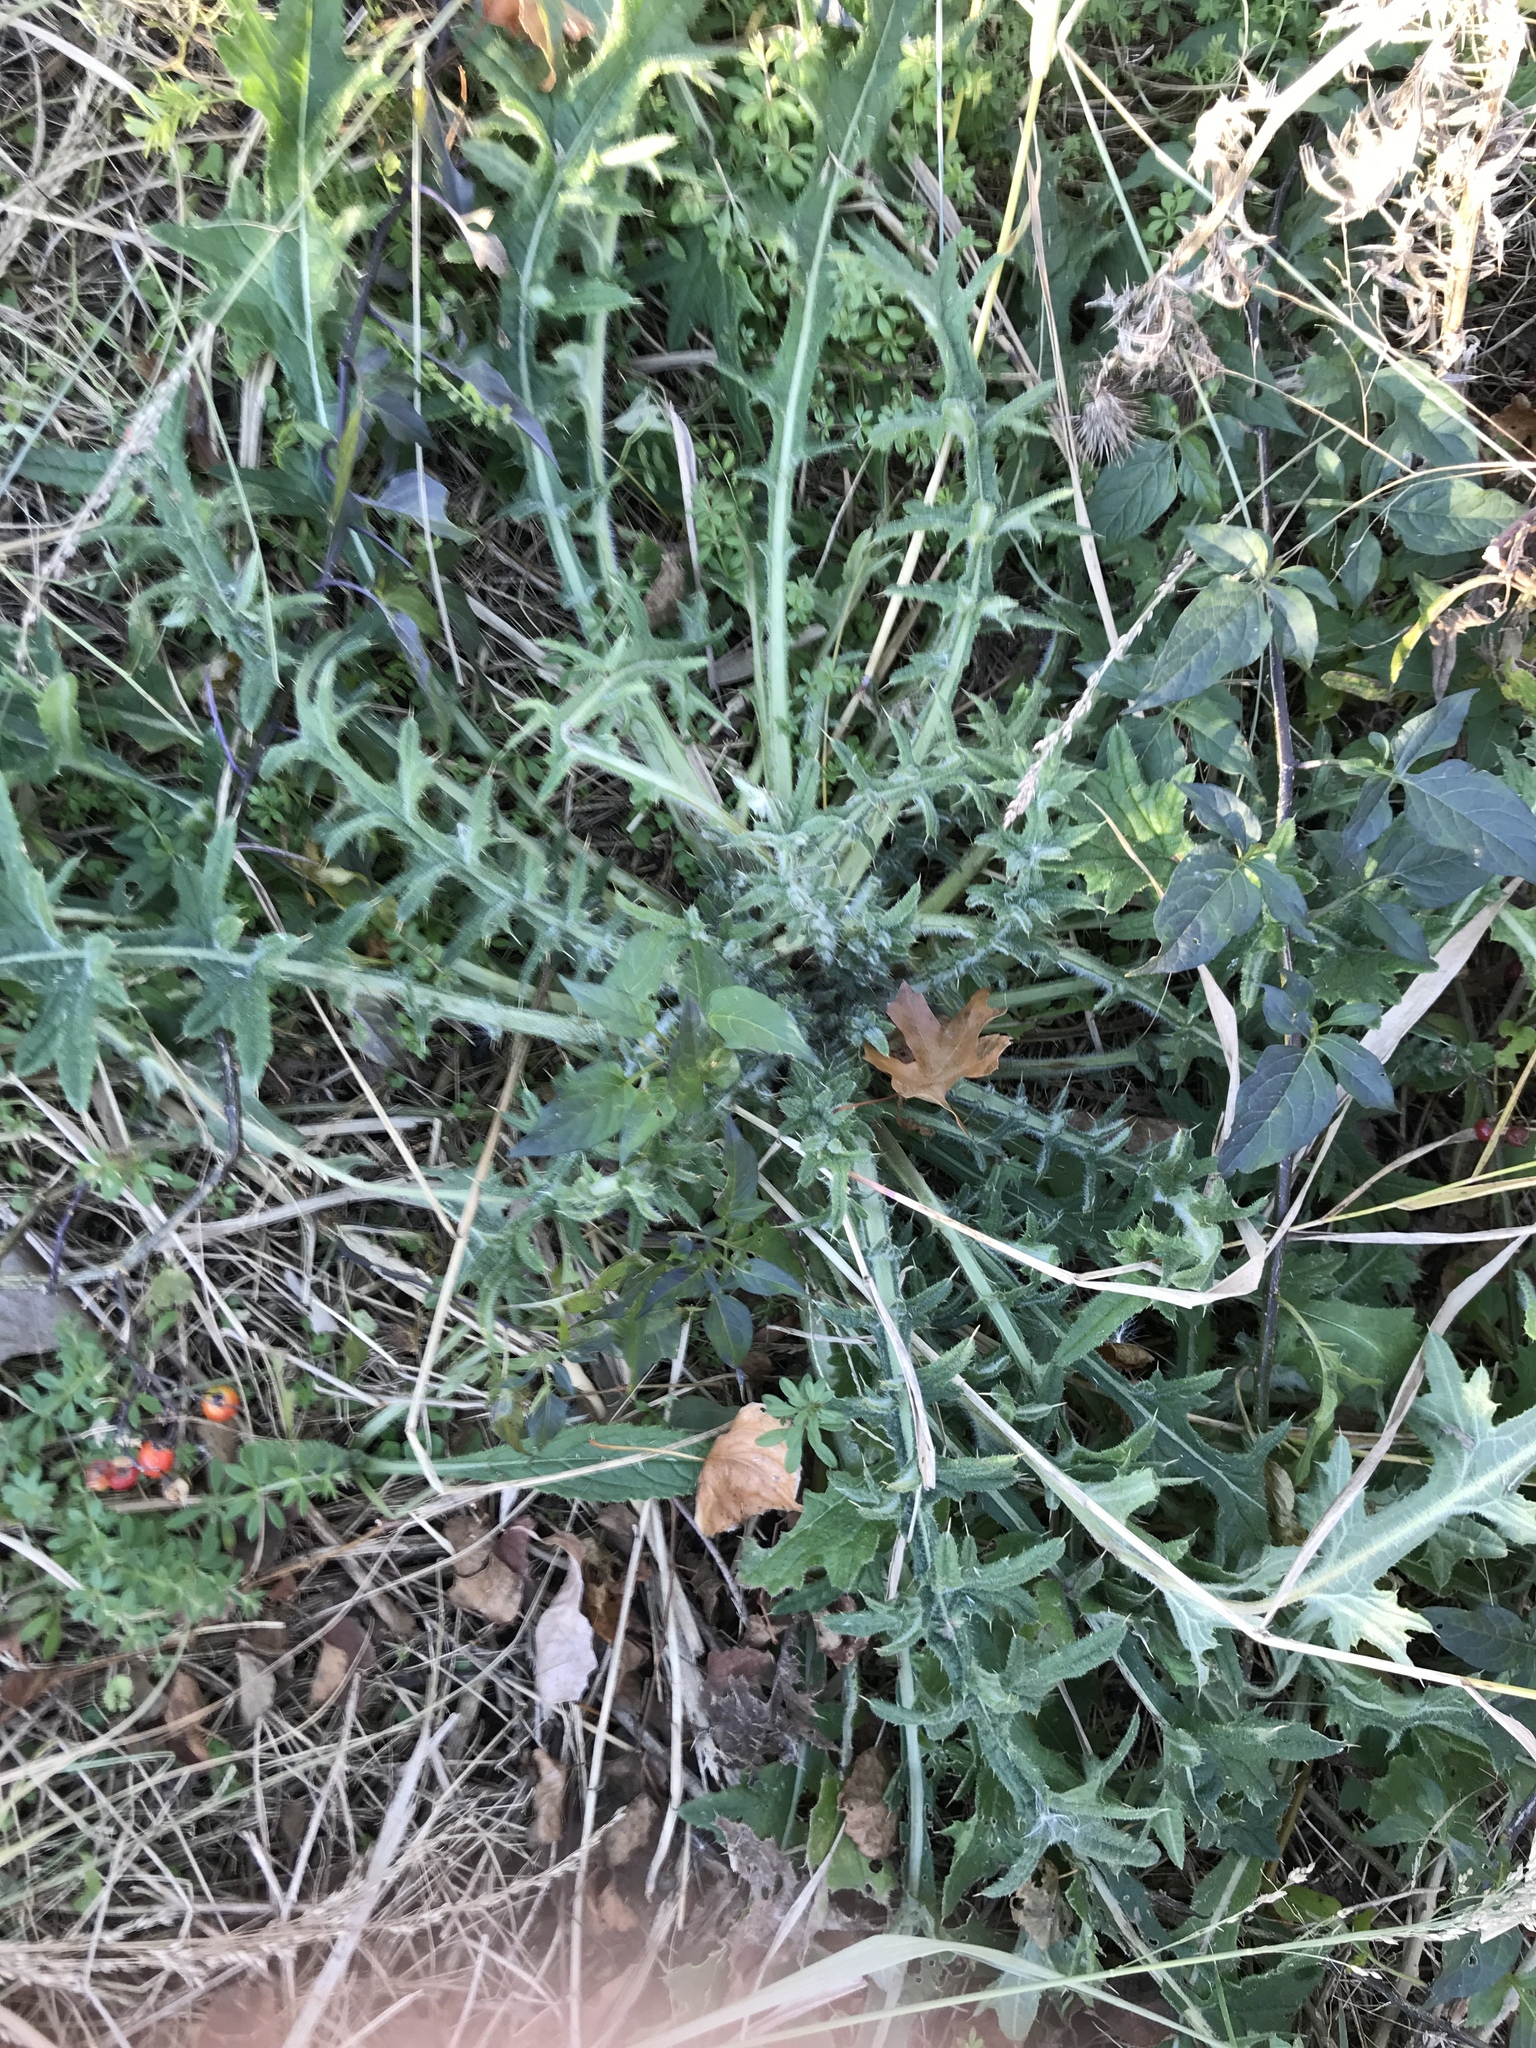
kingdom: Plantae
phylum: Tracheophyta
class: Magnoliopsida
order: Asterales
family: Asteraceae
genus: Cirsium
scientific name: Cirsium vulgare
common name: Bull thistle
